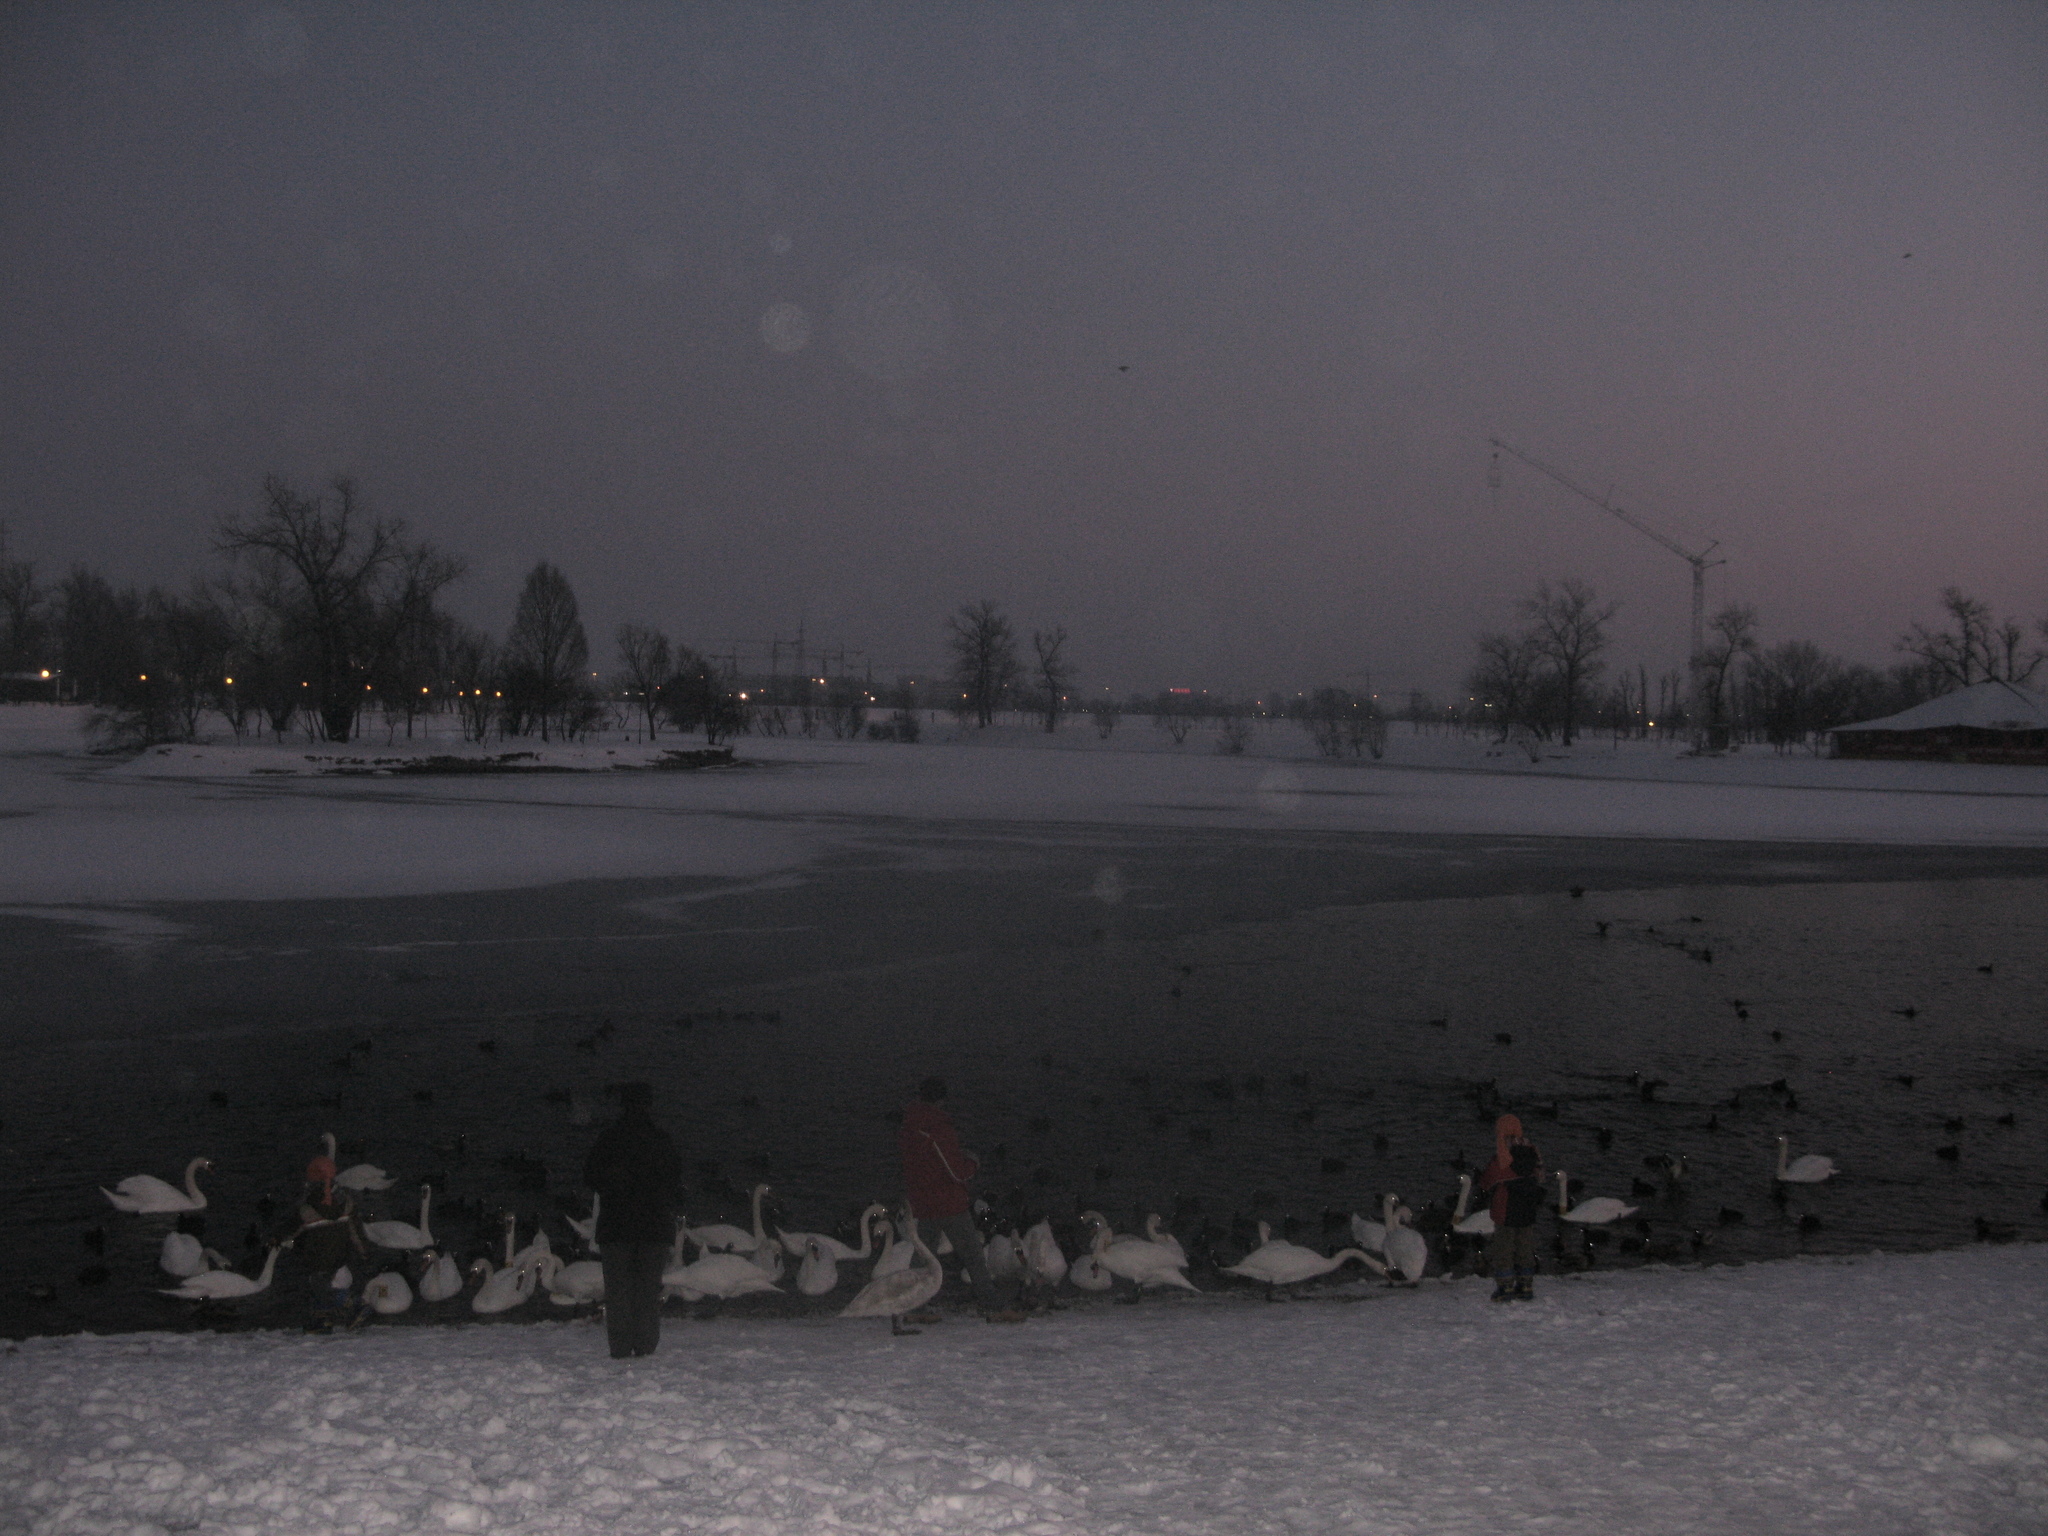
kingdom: Animalia
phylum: Chordata
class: Aves
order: Anseriformes
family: Anatidae
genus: Cygnus
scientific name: Cygnus olor
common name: Mute swan
